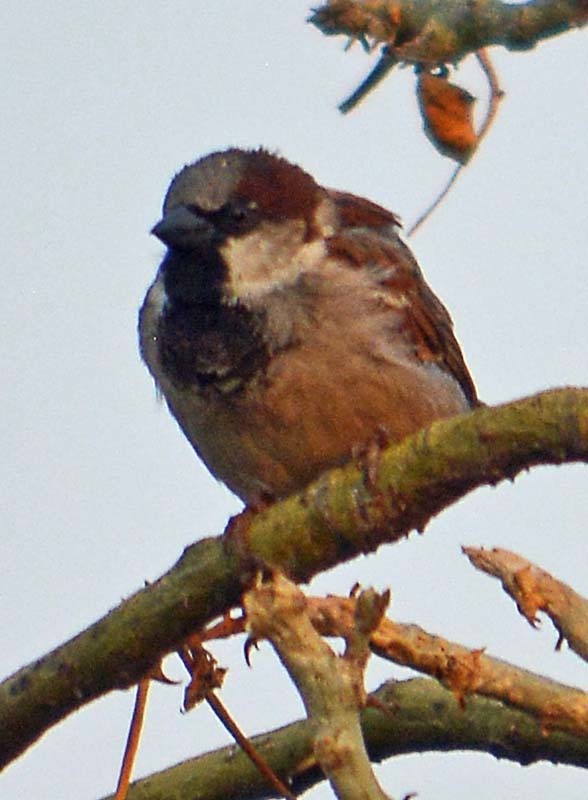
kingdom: Animalia
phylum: Chordata
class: Aves
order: Passeriformes
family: Passeridae
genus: Passer
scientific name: Passer domesticus
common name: House sparrow
